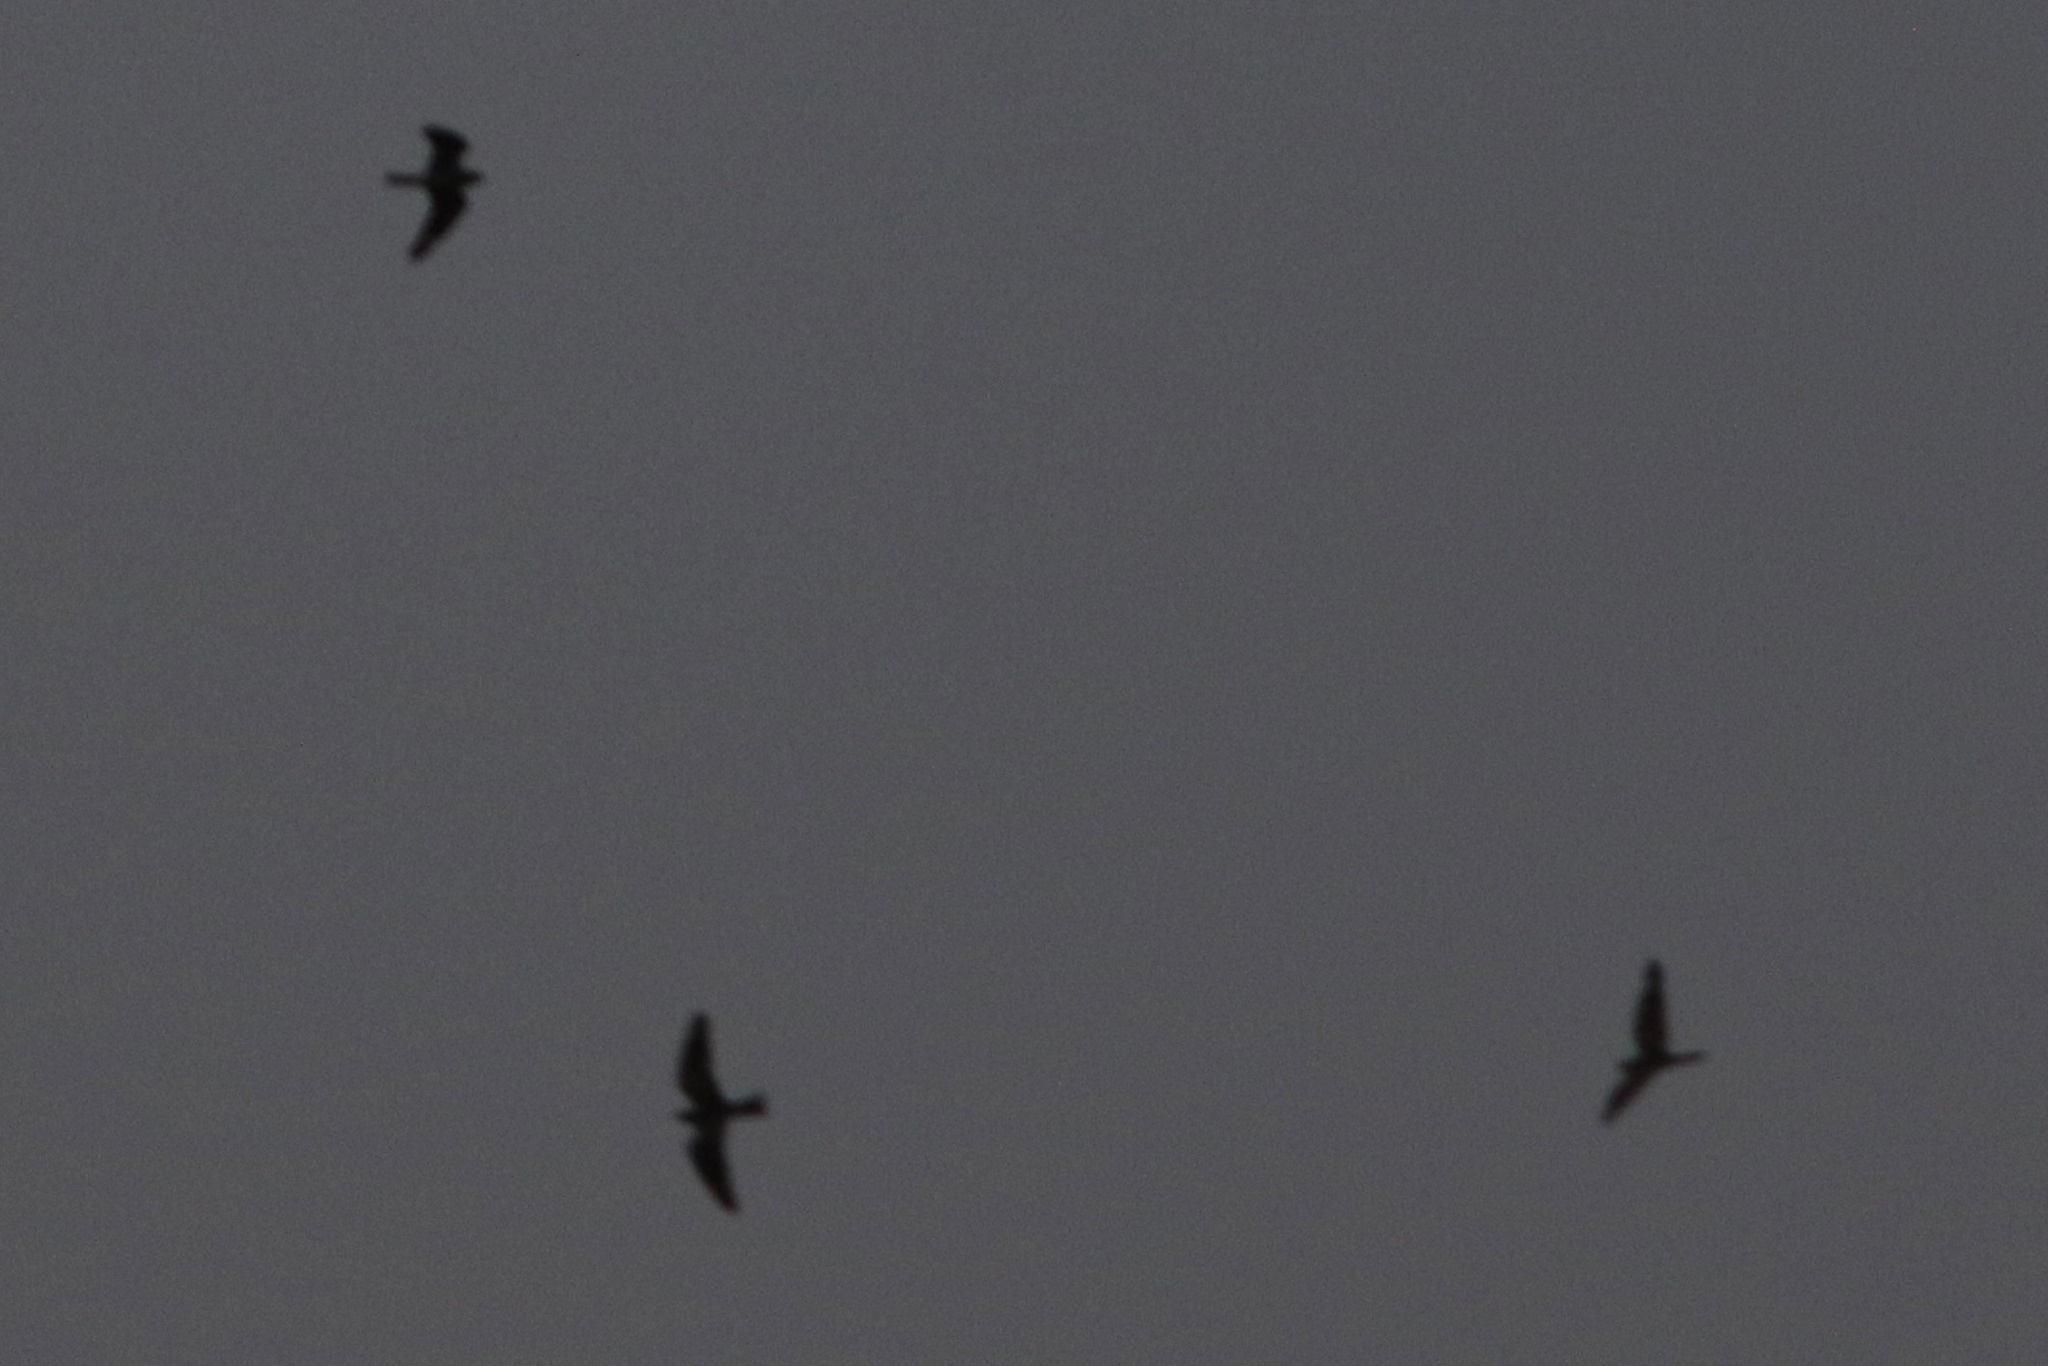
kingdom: Animalia
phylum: Chordata
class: Aves
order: Caprimulgiformes
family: Caprimulgidae
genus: Chordeiles
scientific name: Chordeiles acutipennis
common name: Lesser nighthawk
